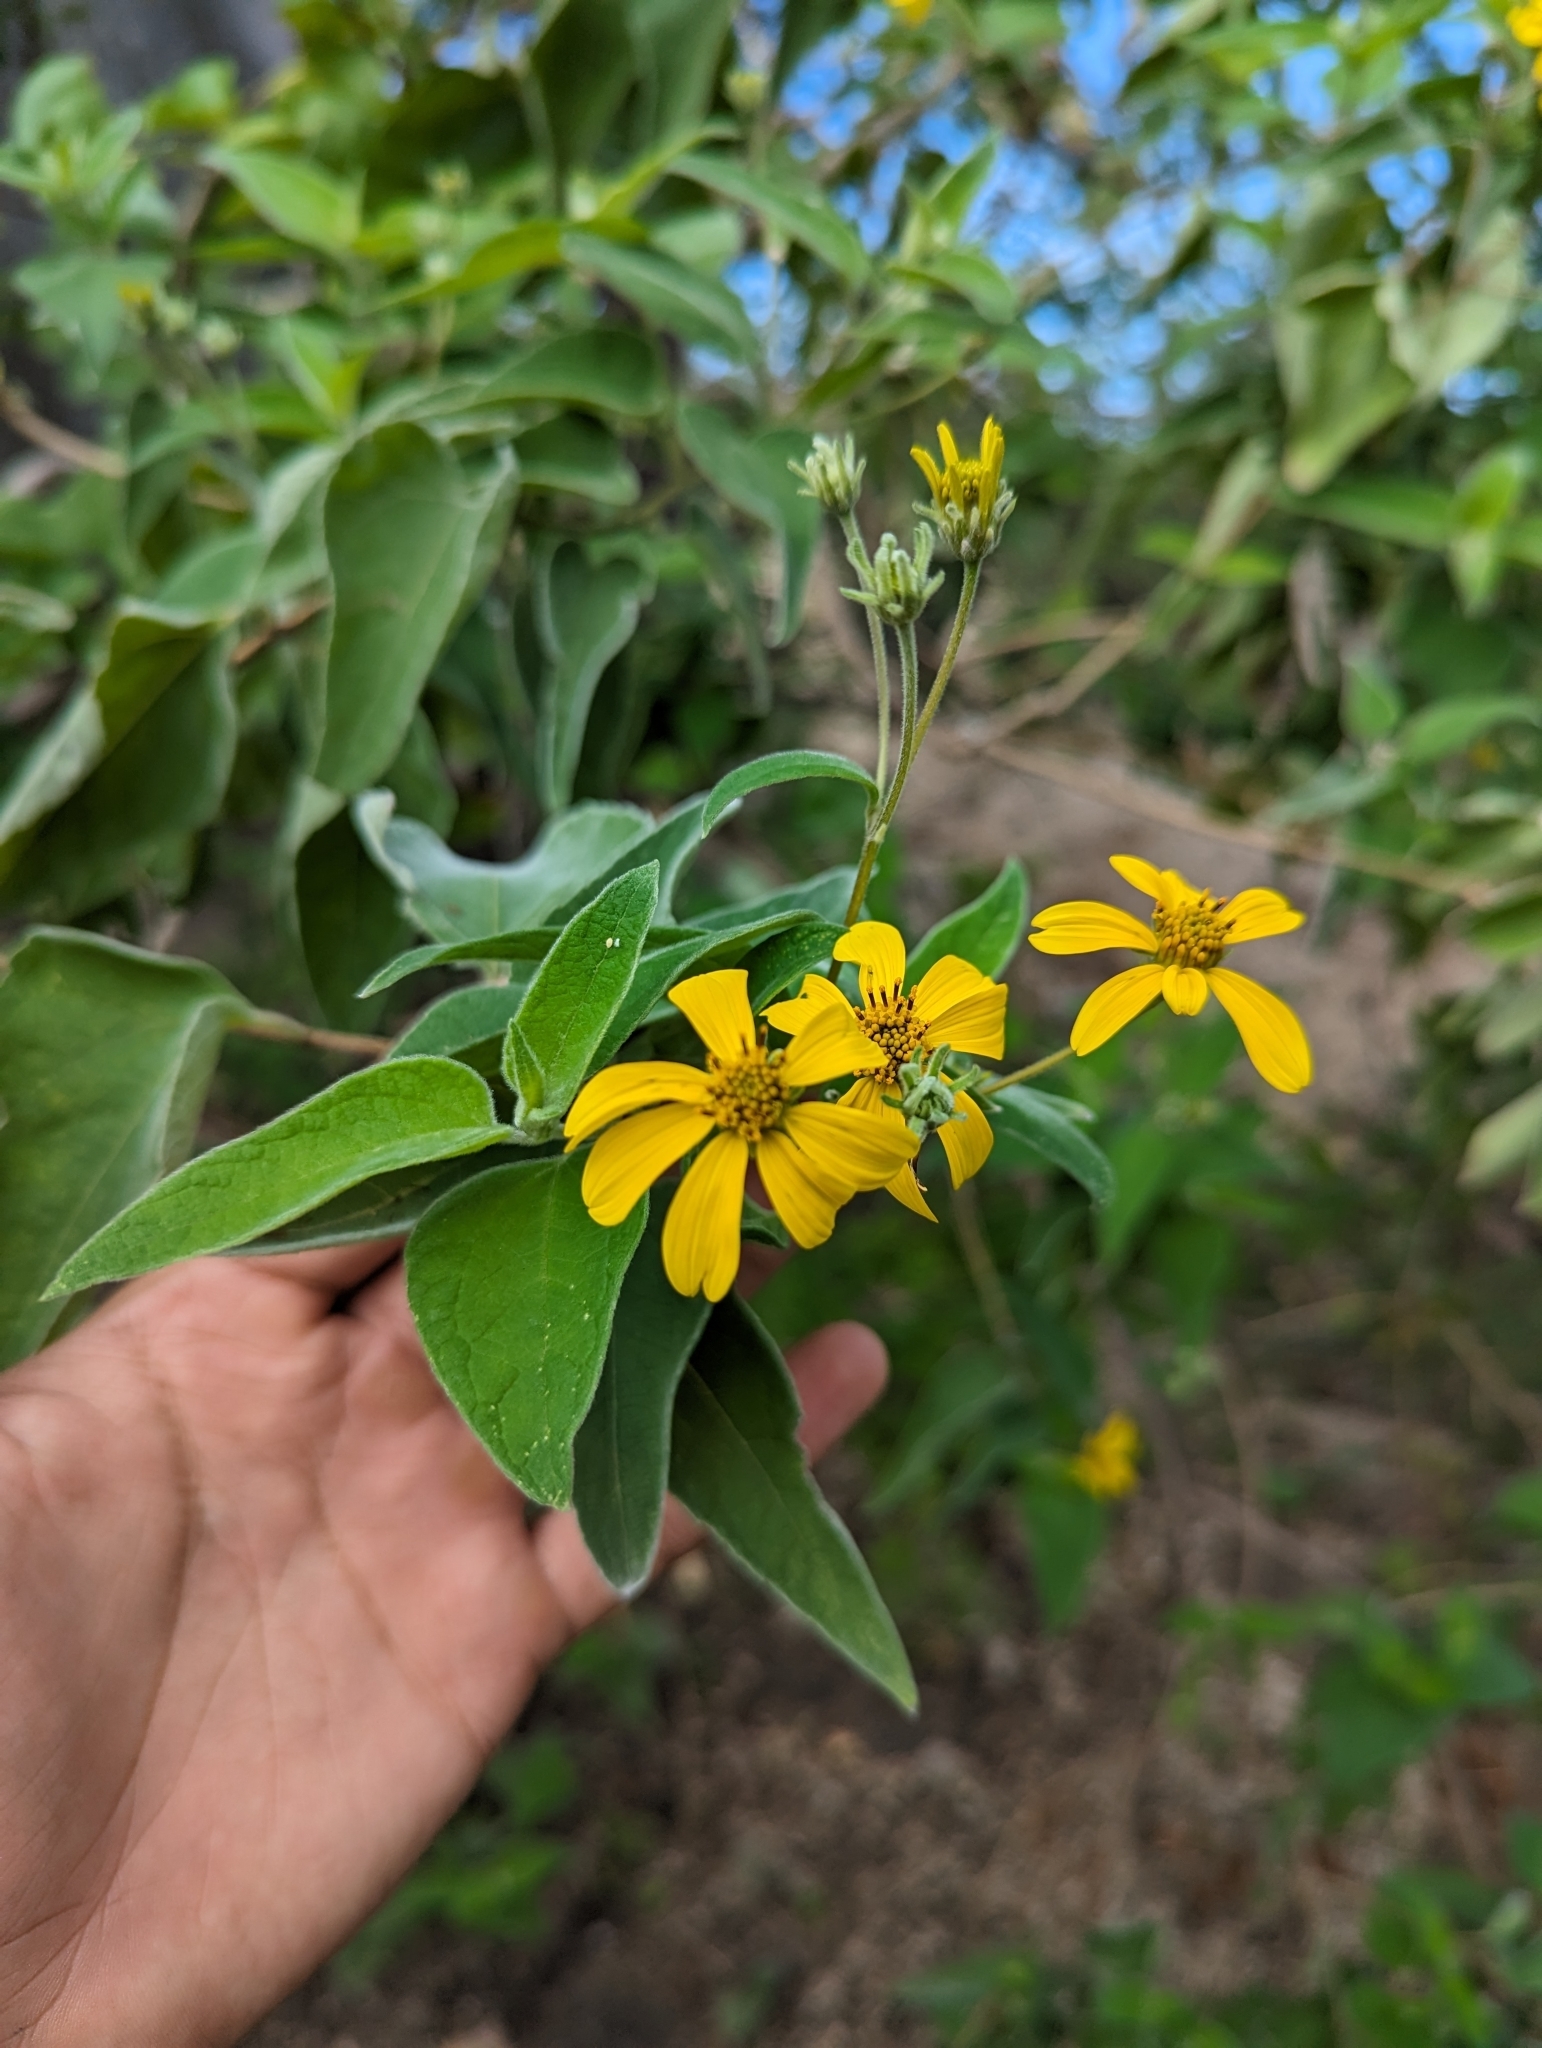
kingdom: Plantae
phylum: Tracheophyta
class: Magnoliopsida
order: Asterales
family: Asteraceae
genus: Bahiopsis
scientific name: Bahiopsis tomentosa
